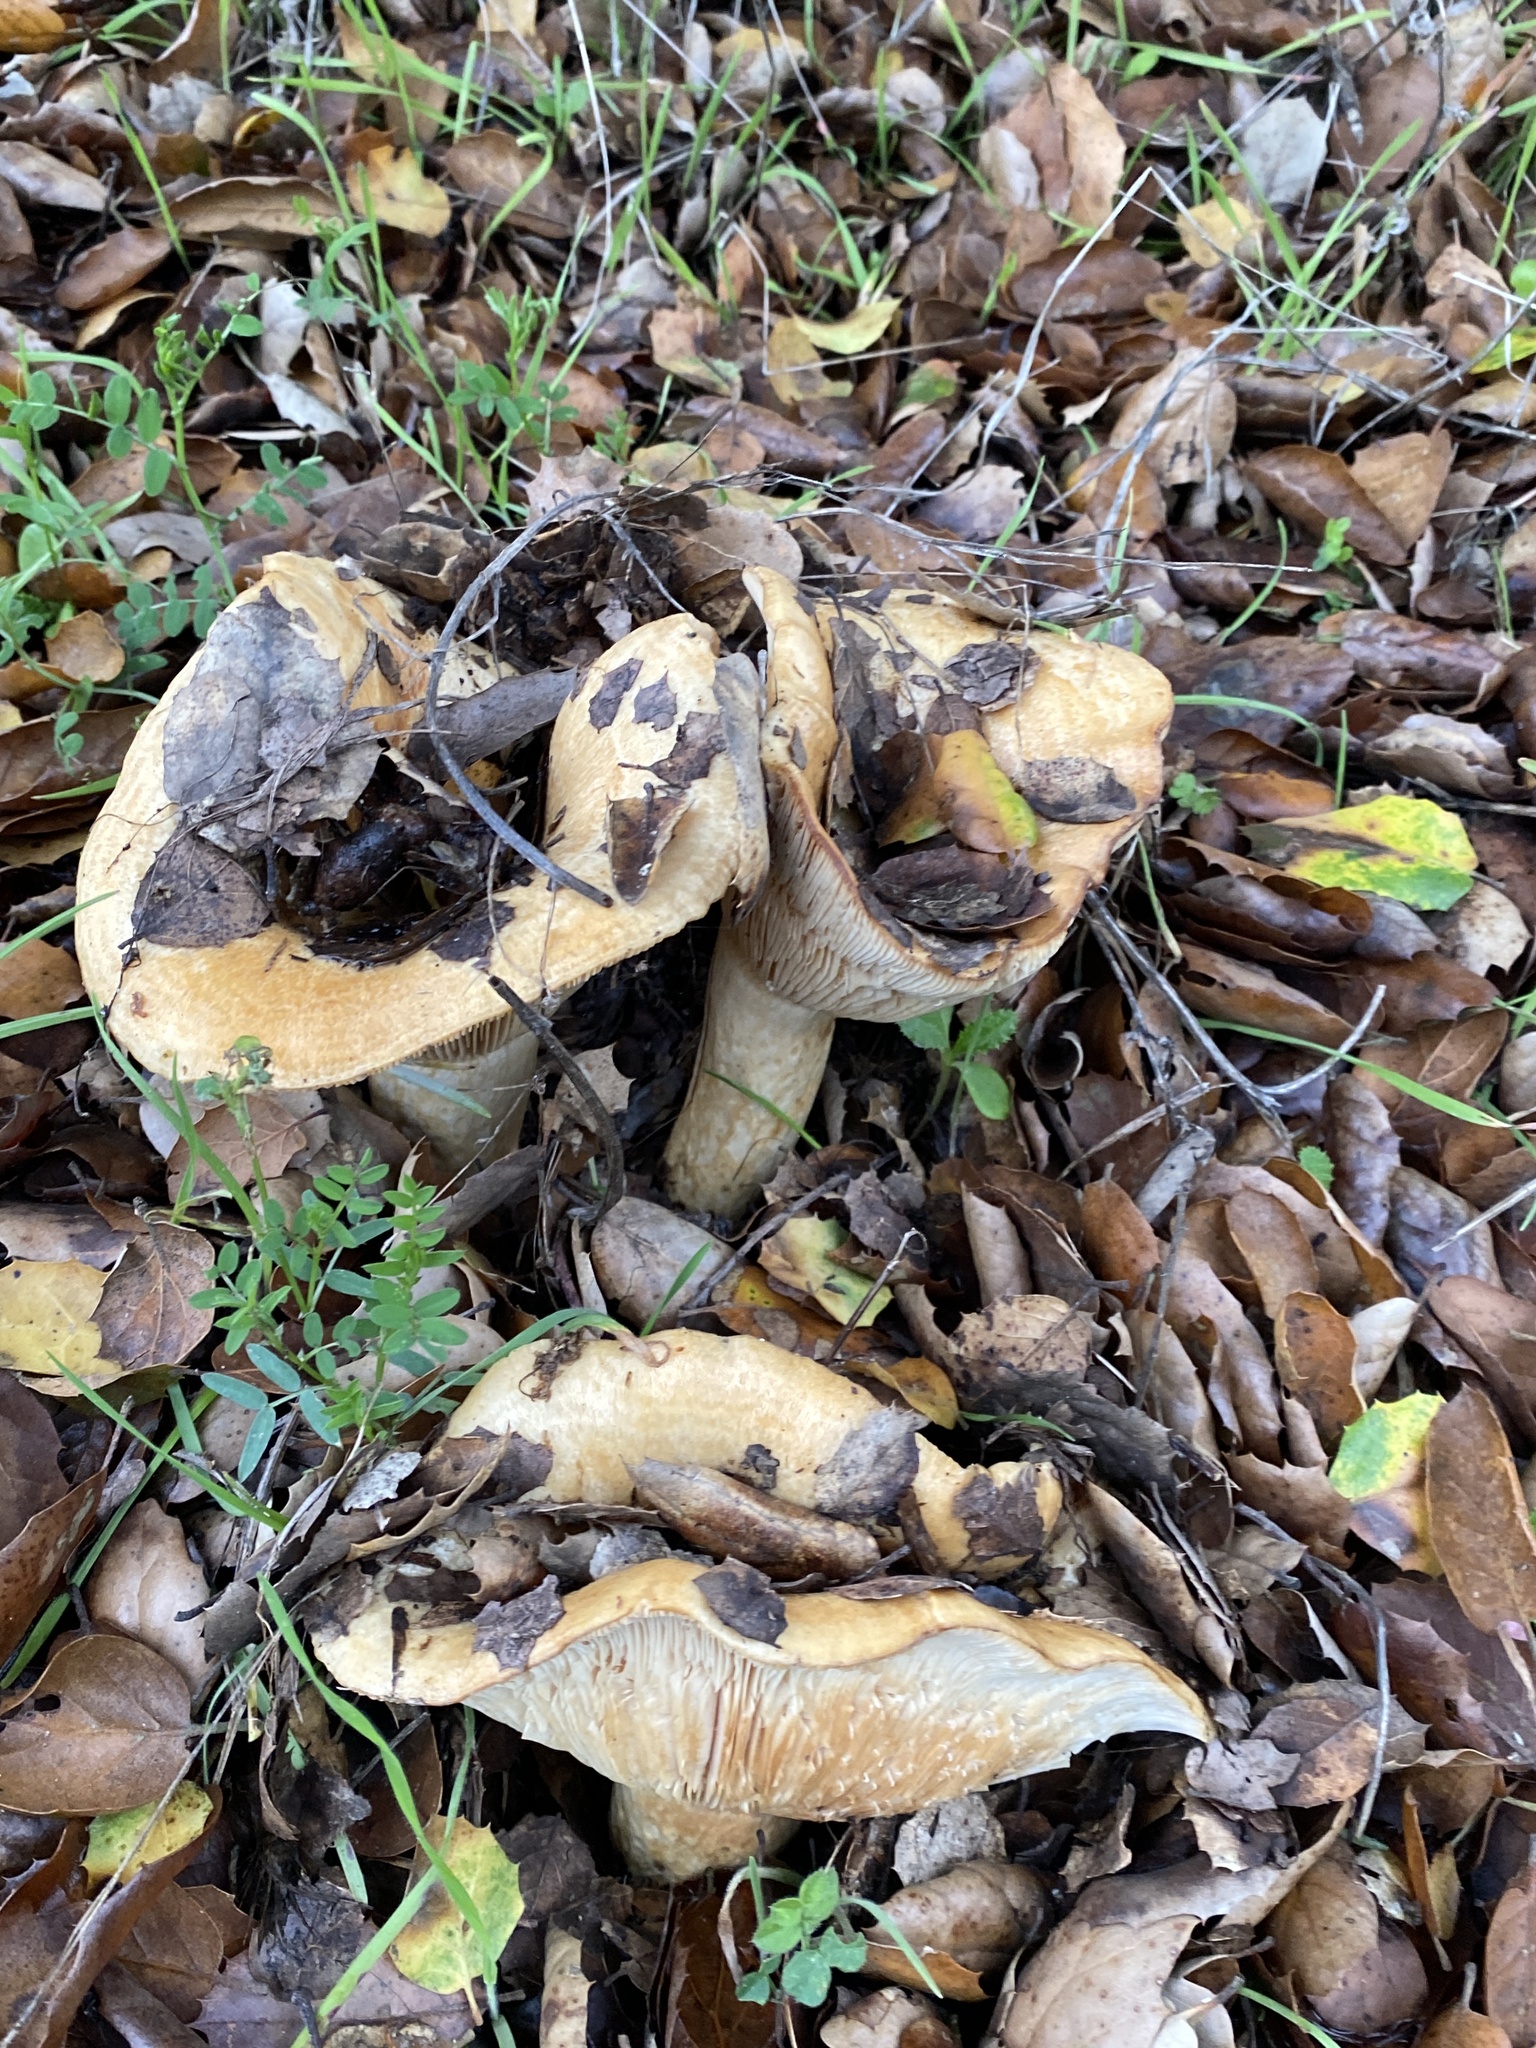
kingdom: Fungi
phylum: Basidiomycota
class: Agaricomycetes
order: Russulales
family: Russulaceae
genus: Lactarius
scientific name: Lactarius alnicola
